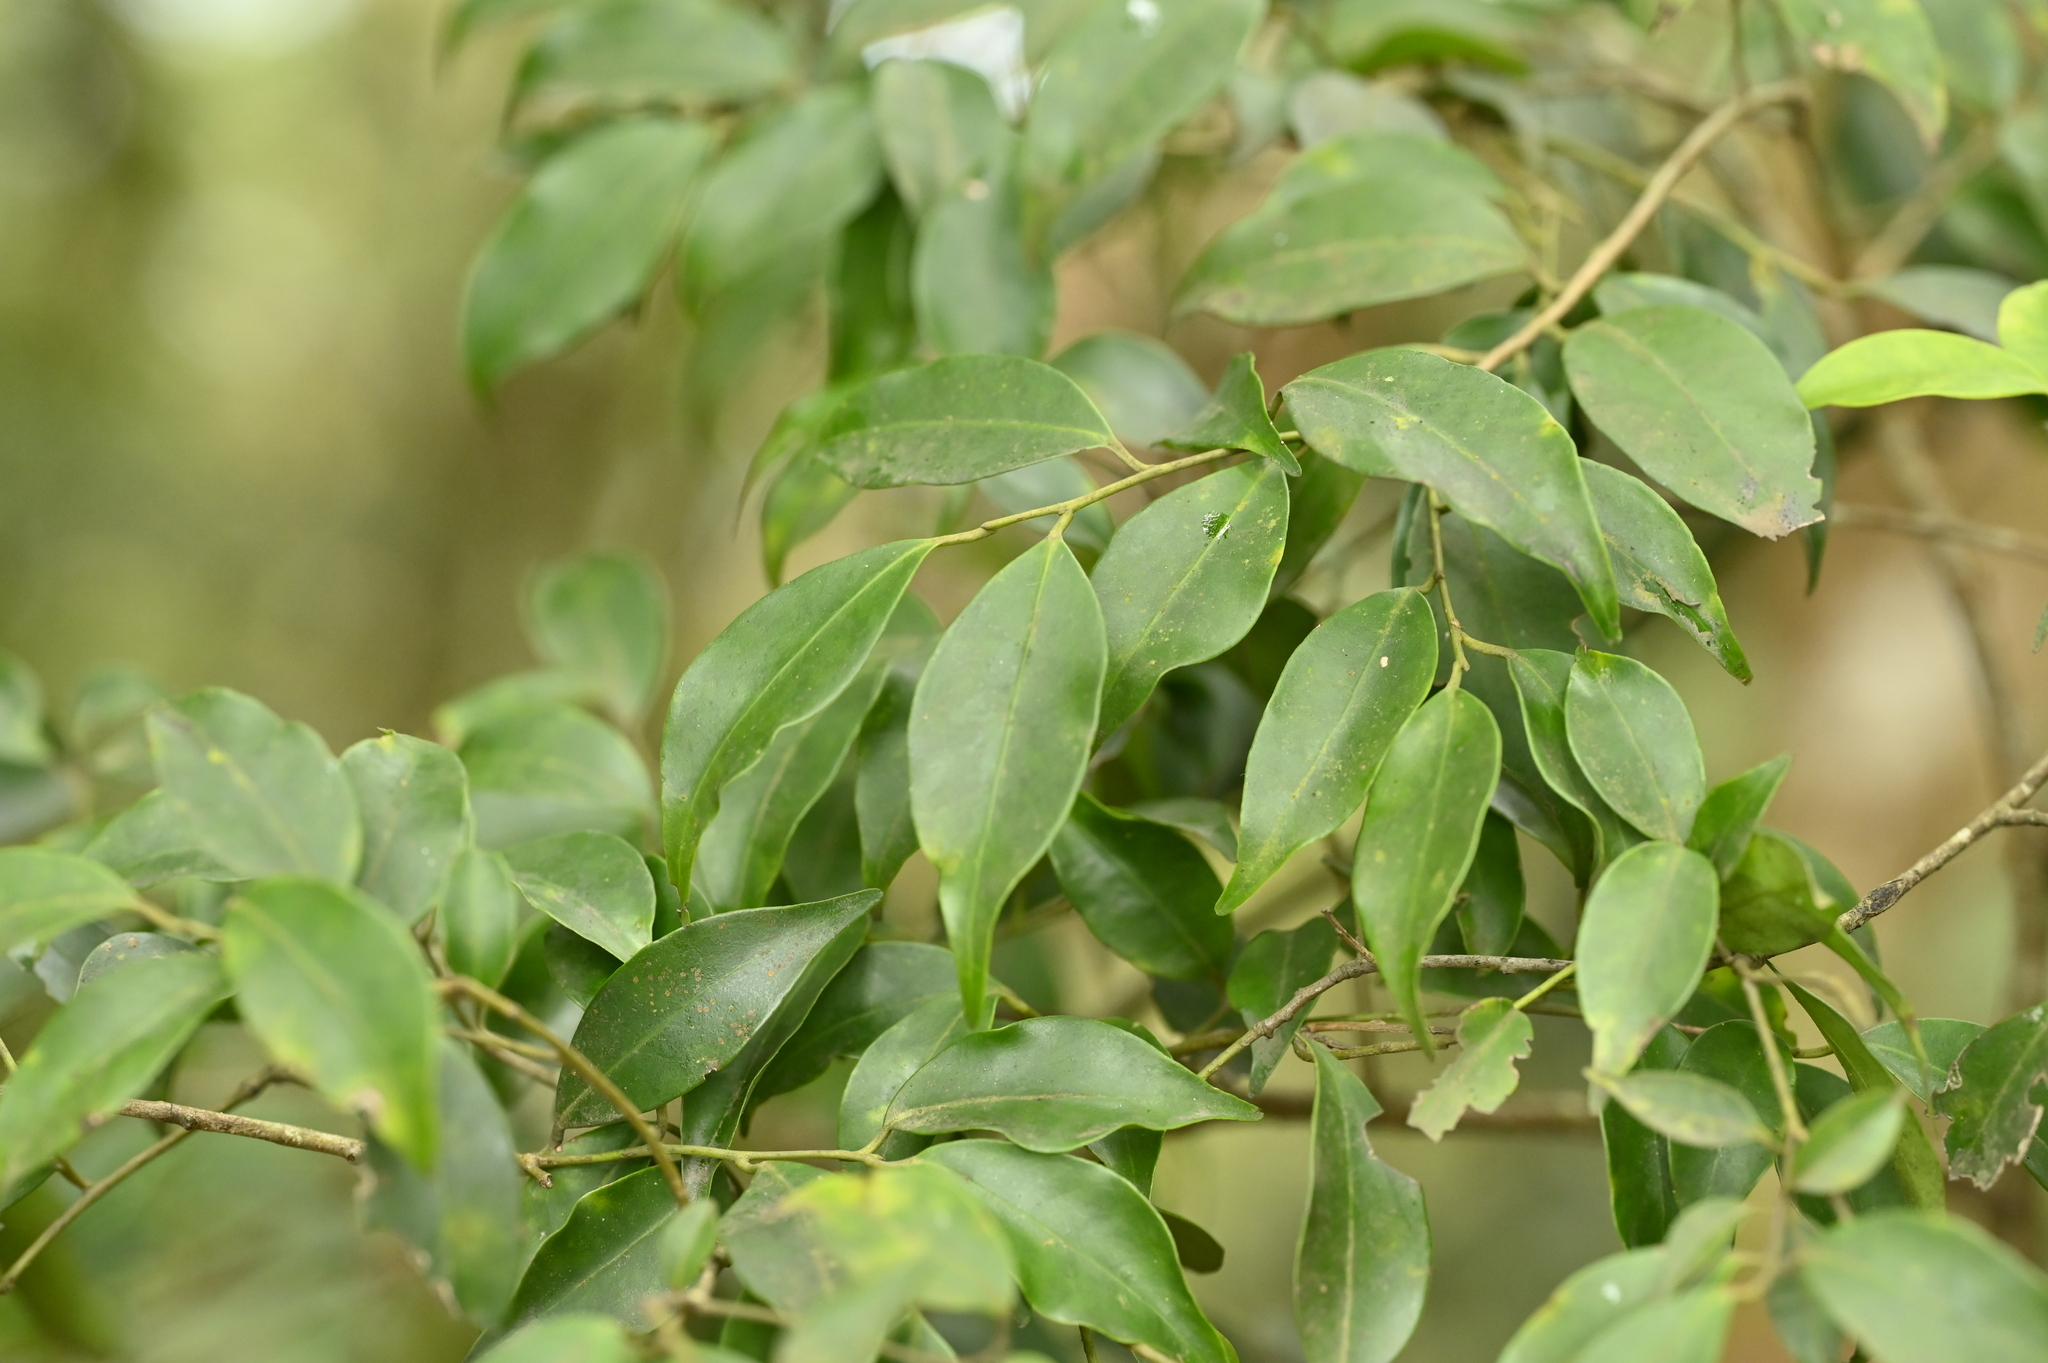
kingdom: Plantae
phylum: Tracheophyta
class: Magnoliopsida
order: Aquifoliales
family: Aquifoliaceae
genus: Ilex
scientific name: Ilex hayataiana
